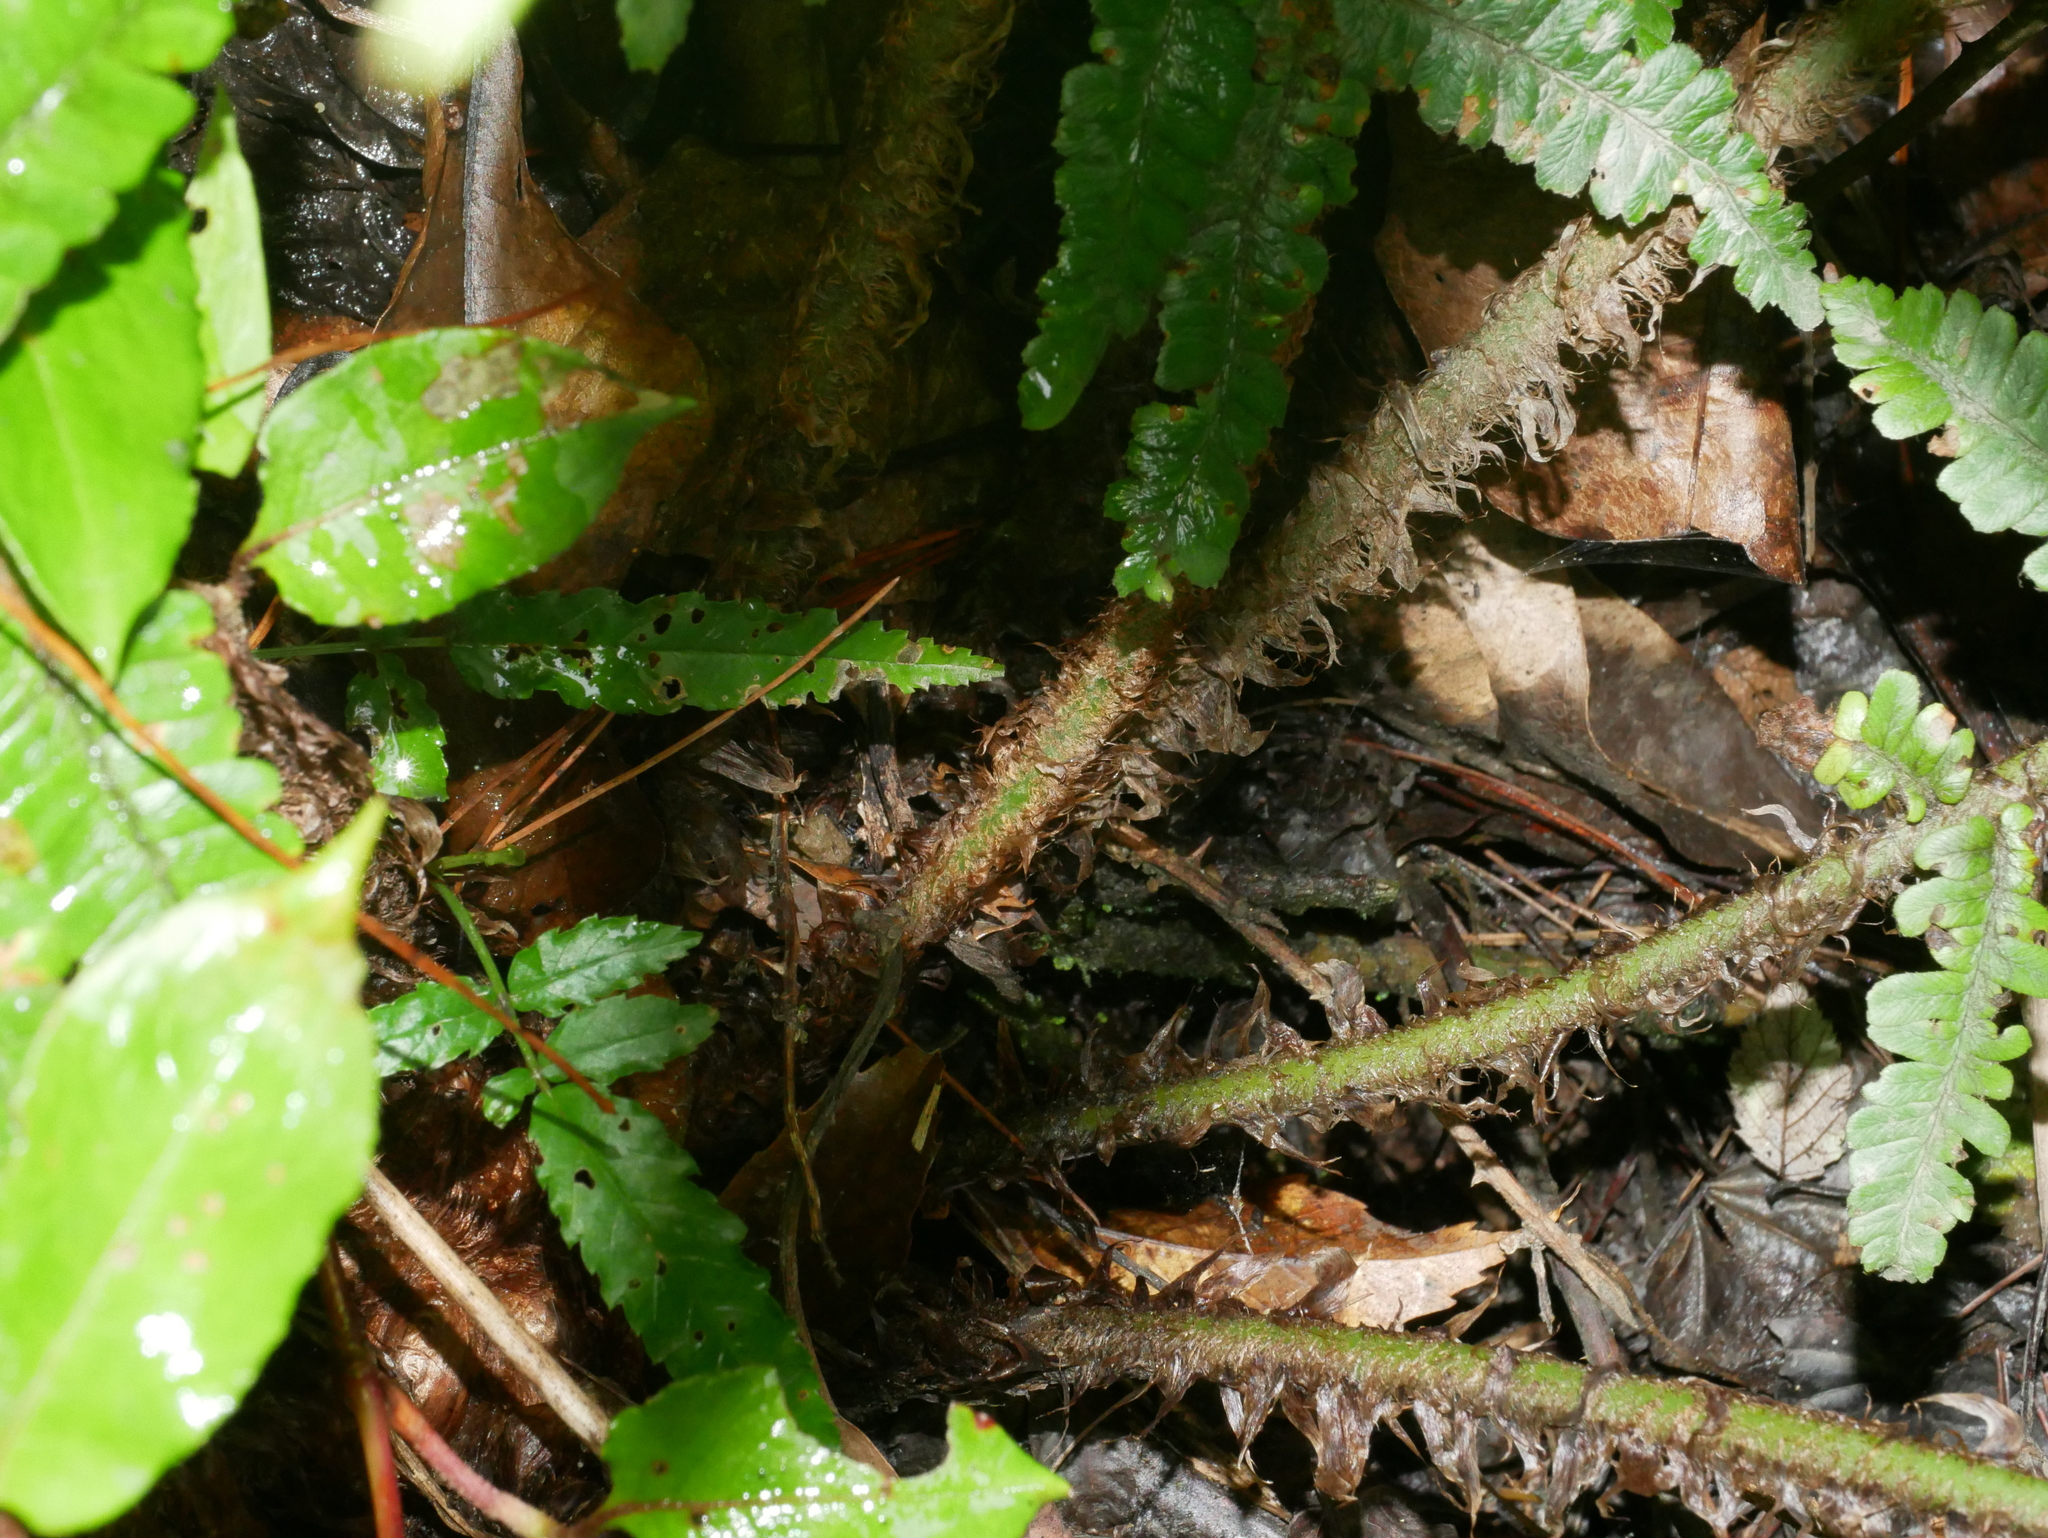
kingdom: Plantae
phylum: Tracheophyta
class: Polypodiopsida
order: Polypodiales
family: Dryopteridaceae
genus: Dryopteris
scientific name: Dryopteris wallichiana
